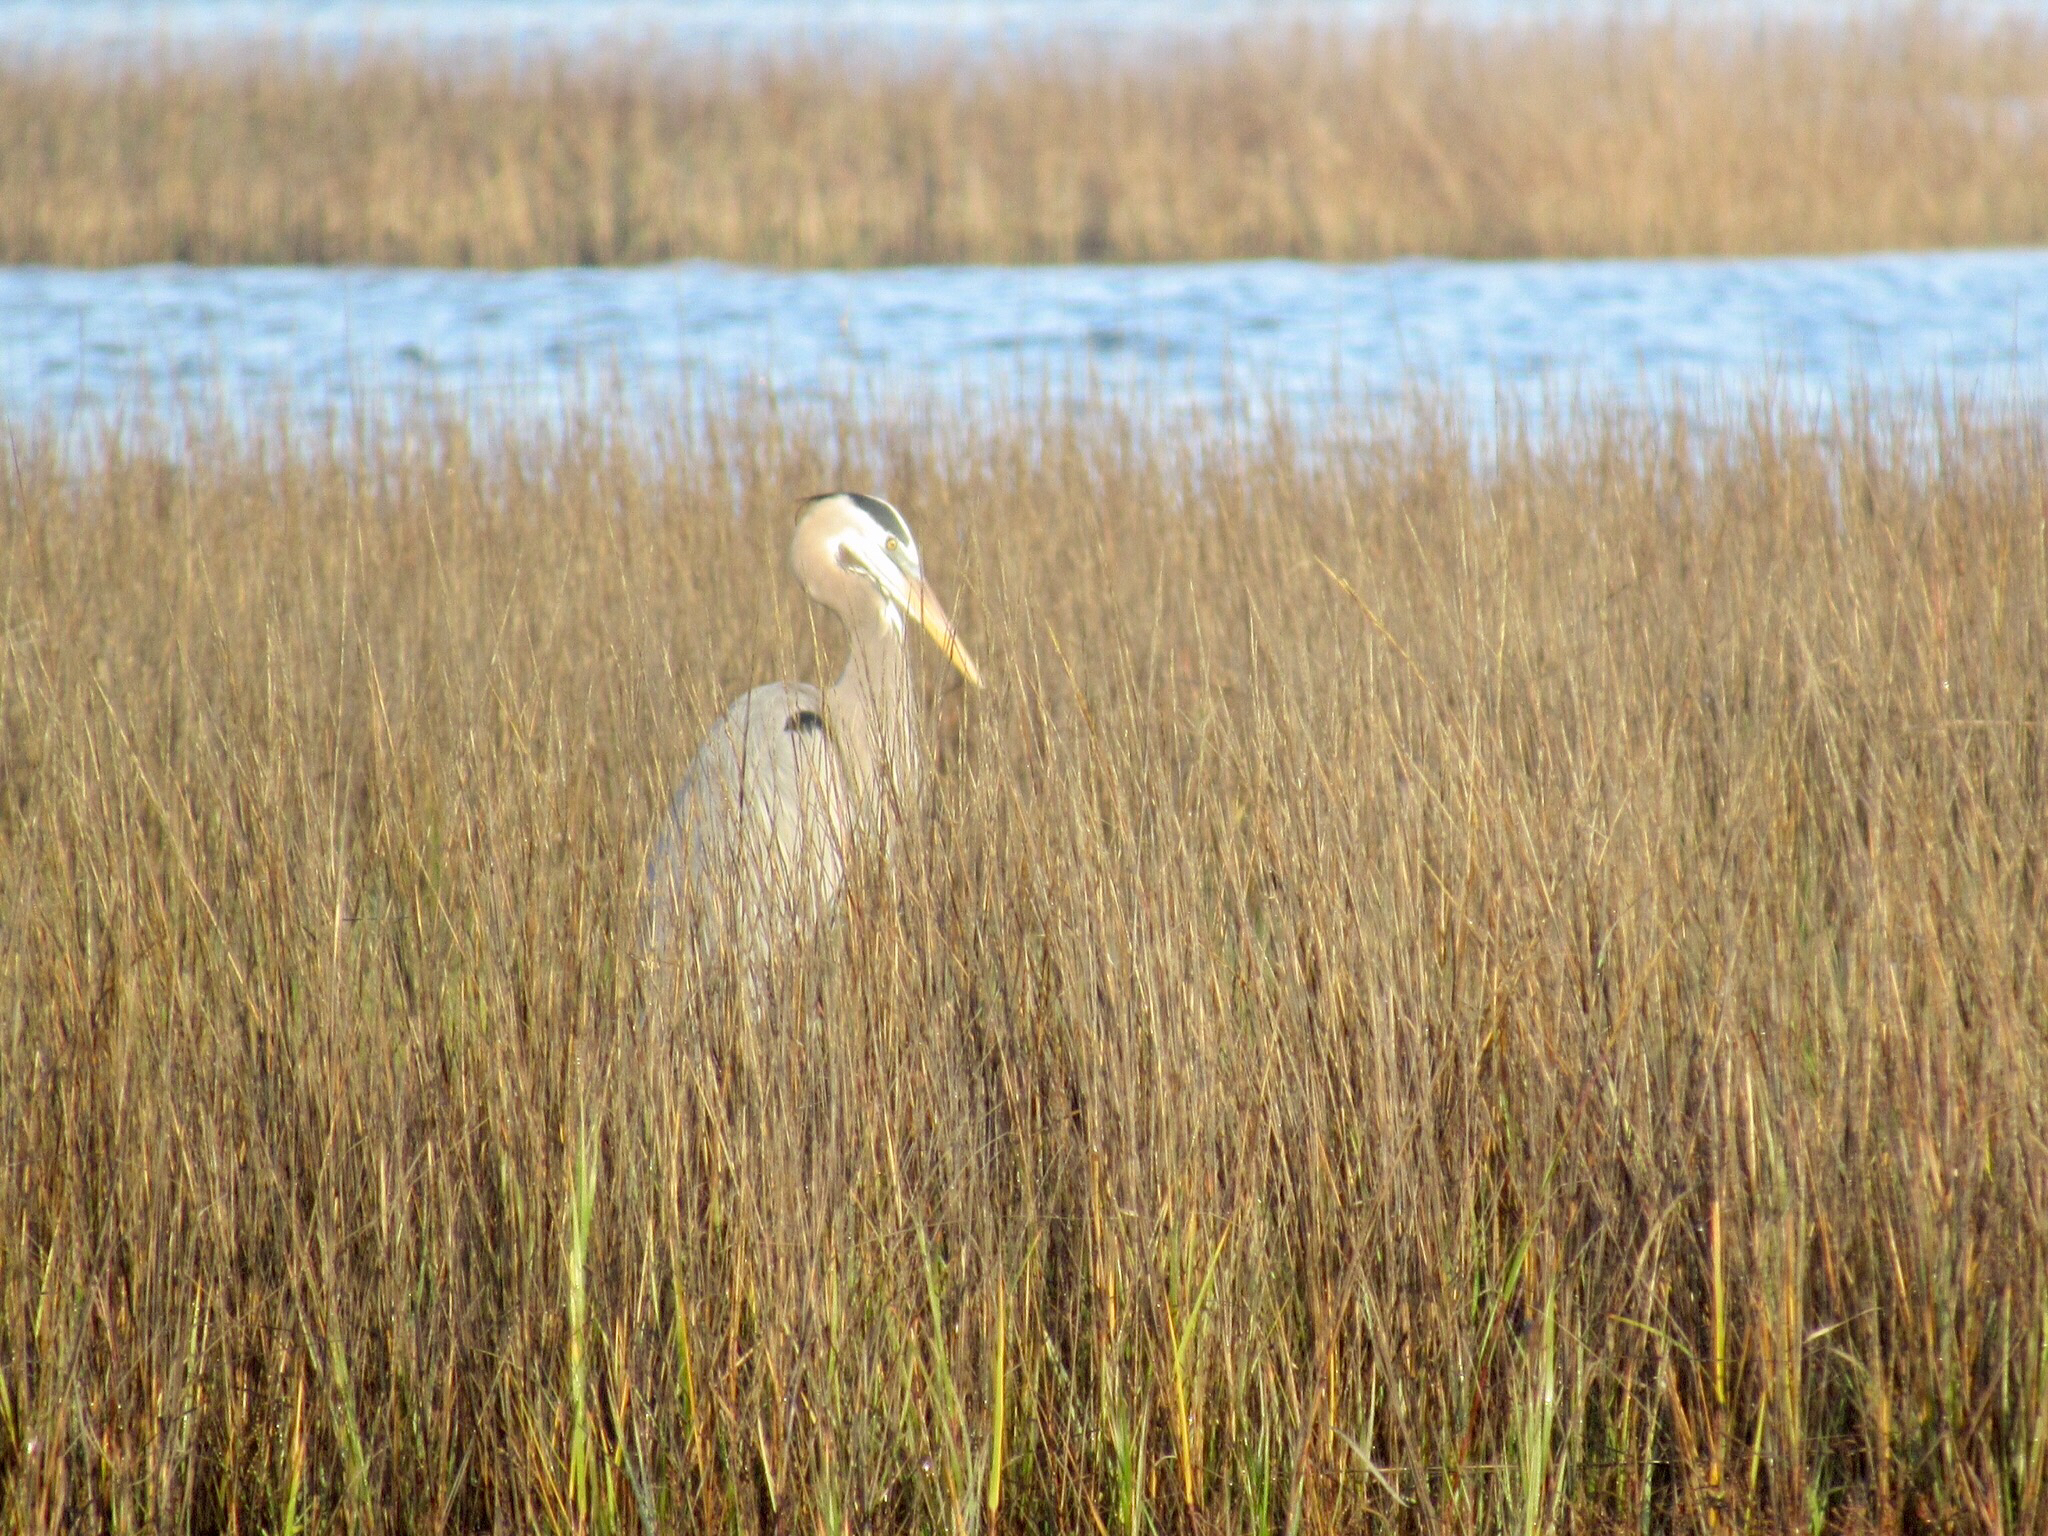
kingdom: Animalia
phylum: Chordata
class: Aves
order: Pelecaniformes
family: Ardeidae
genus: Ardea
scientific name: Ardea herodias
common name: Great blue heron
